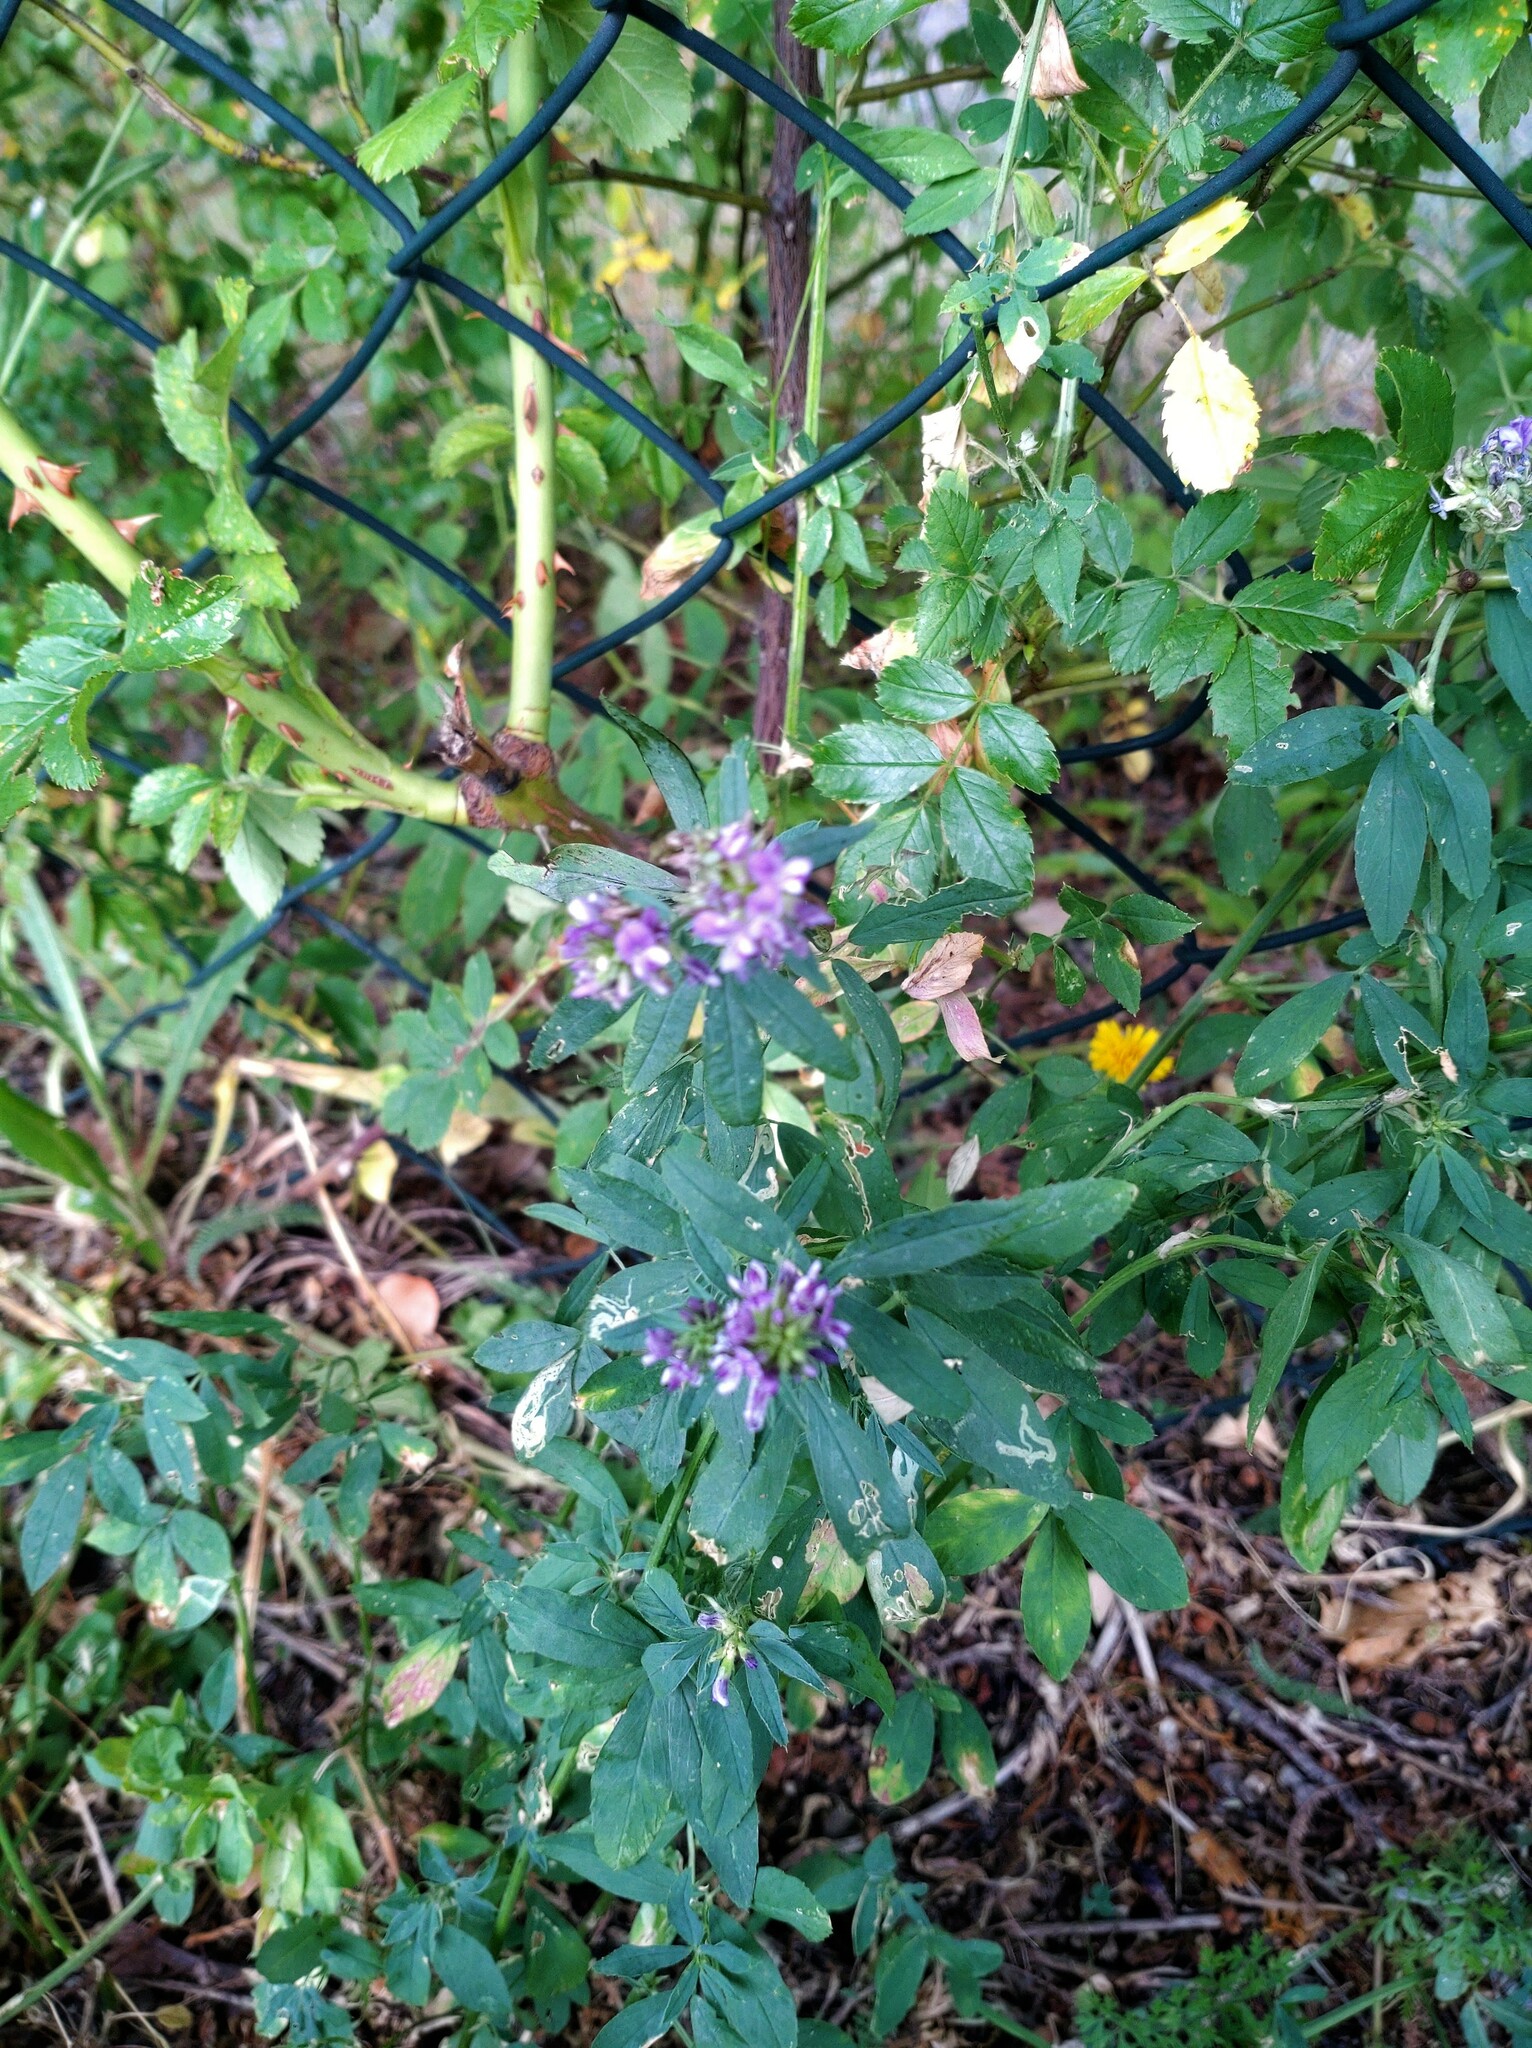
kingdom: Plantae
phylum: Tracheophyta
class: Magnoliopsida
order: Fabales
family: Fabaceae
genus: Medicago
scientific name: Medicago sativa
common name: Alfalfa
